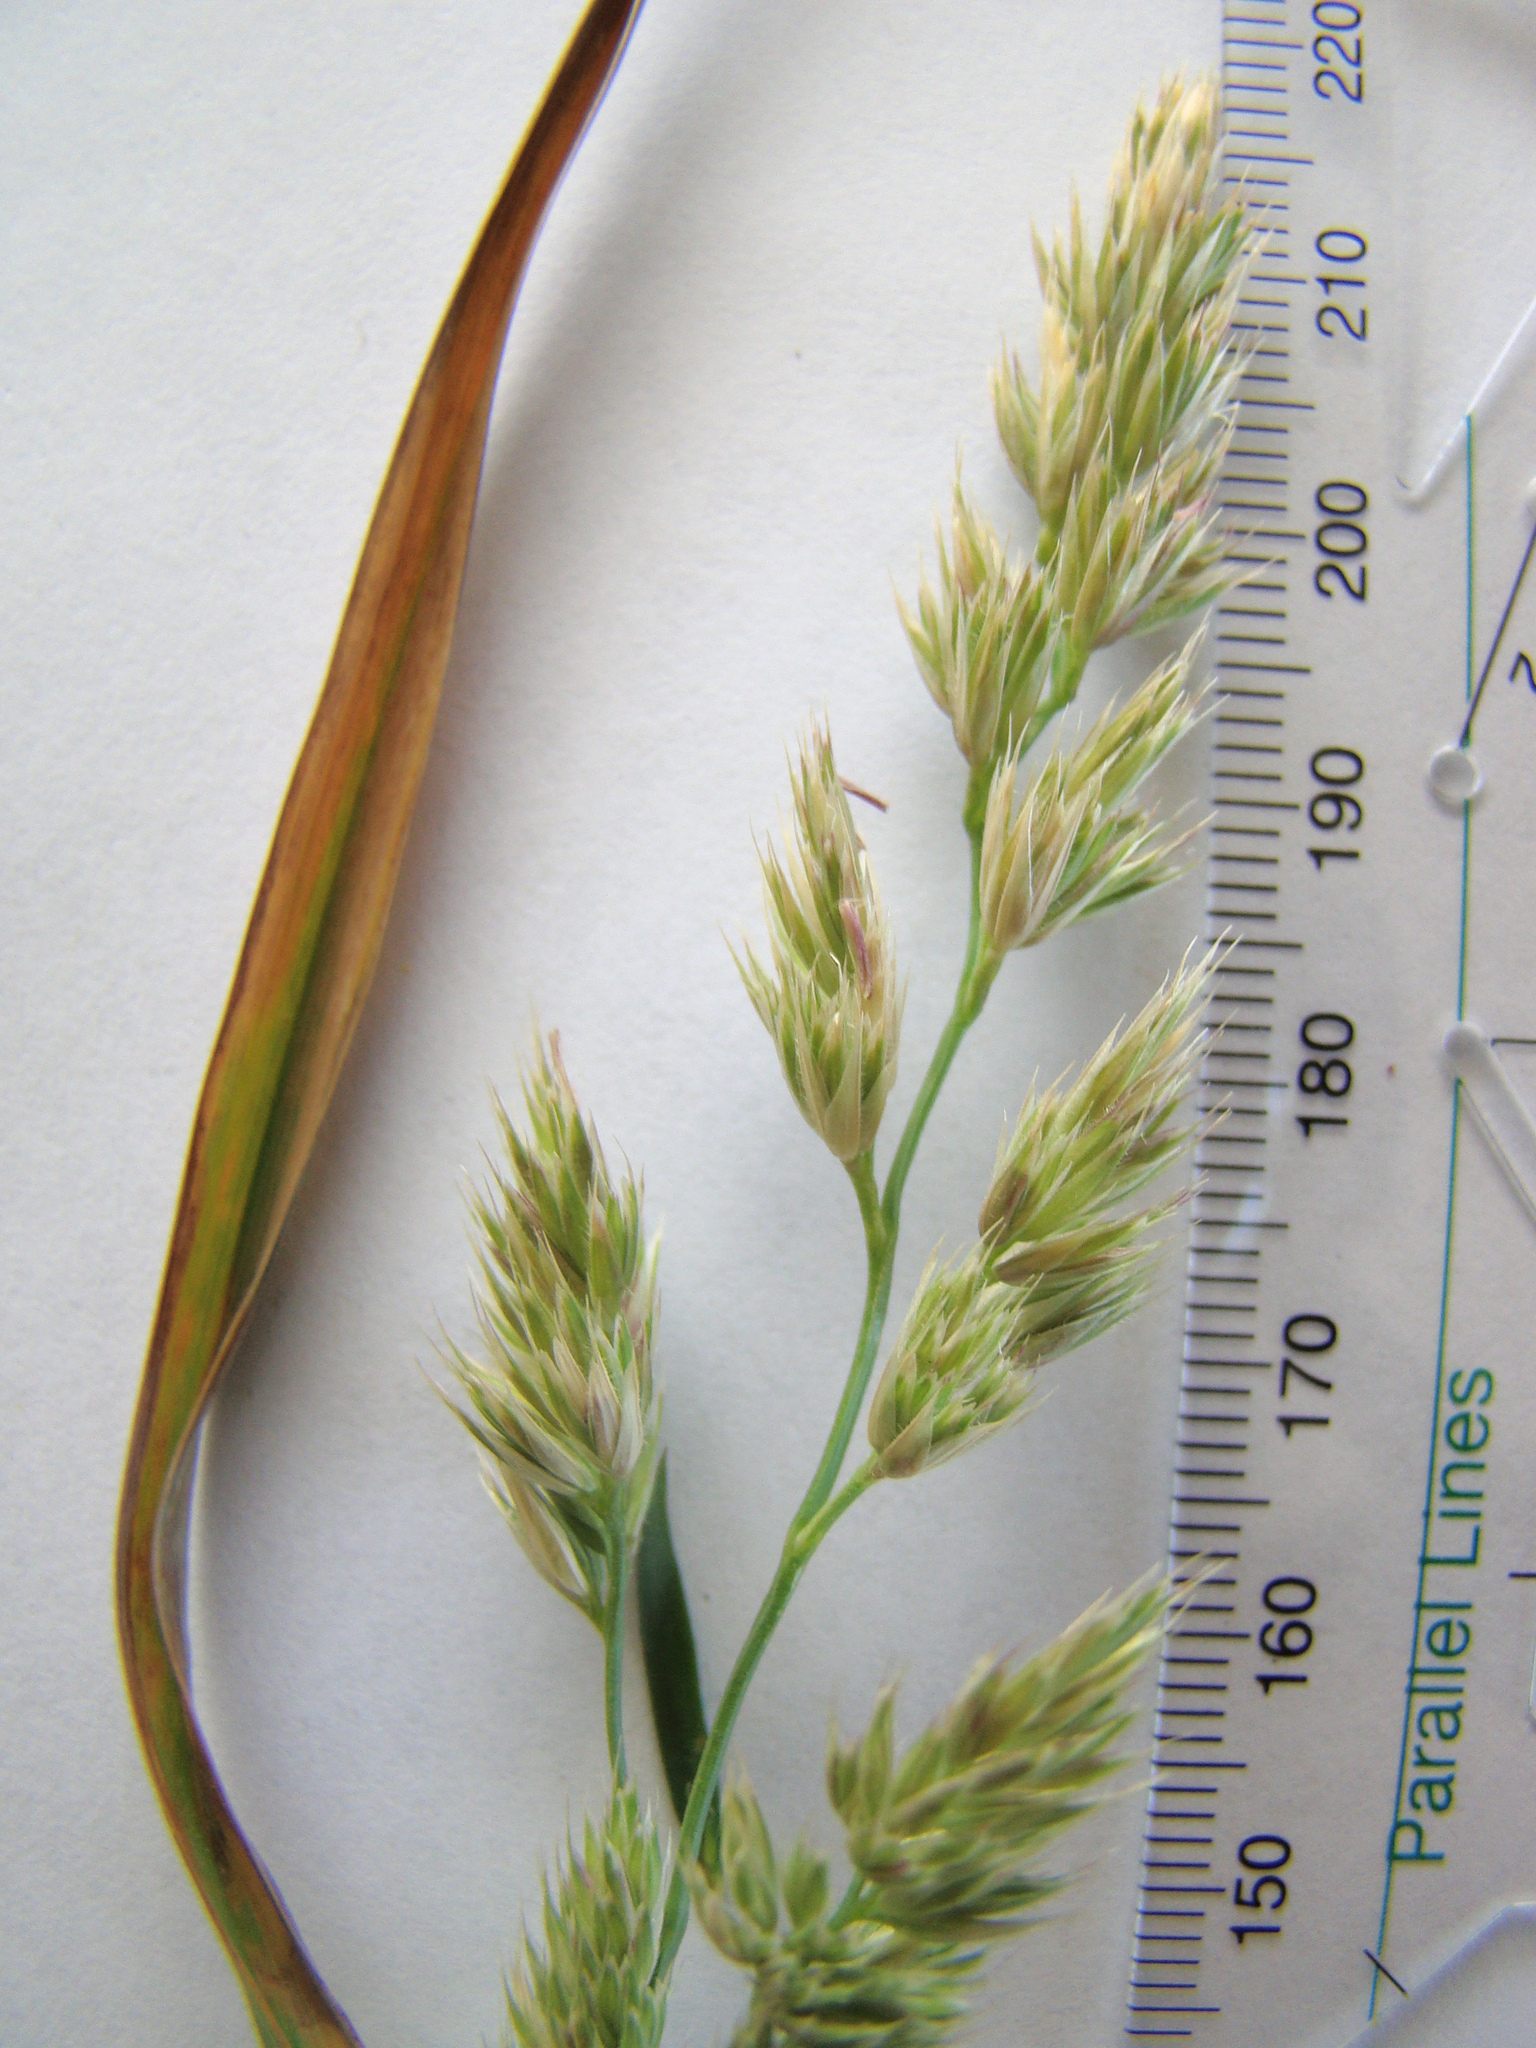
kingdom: Plantae
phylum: Tracheophyta
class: Liliopsida
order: Poales
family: Poaceae
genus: Dactylis
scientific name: Dactylis glomerata
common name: Orchardgrass
